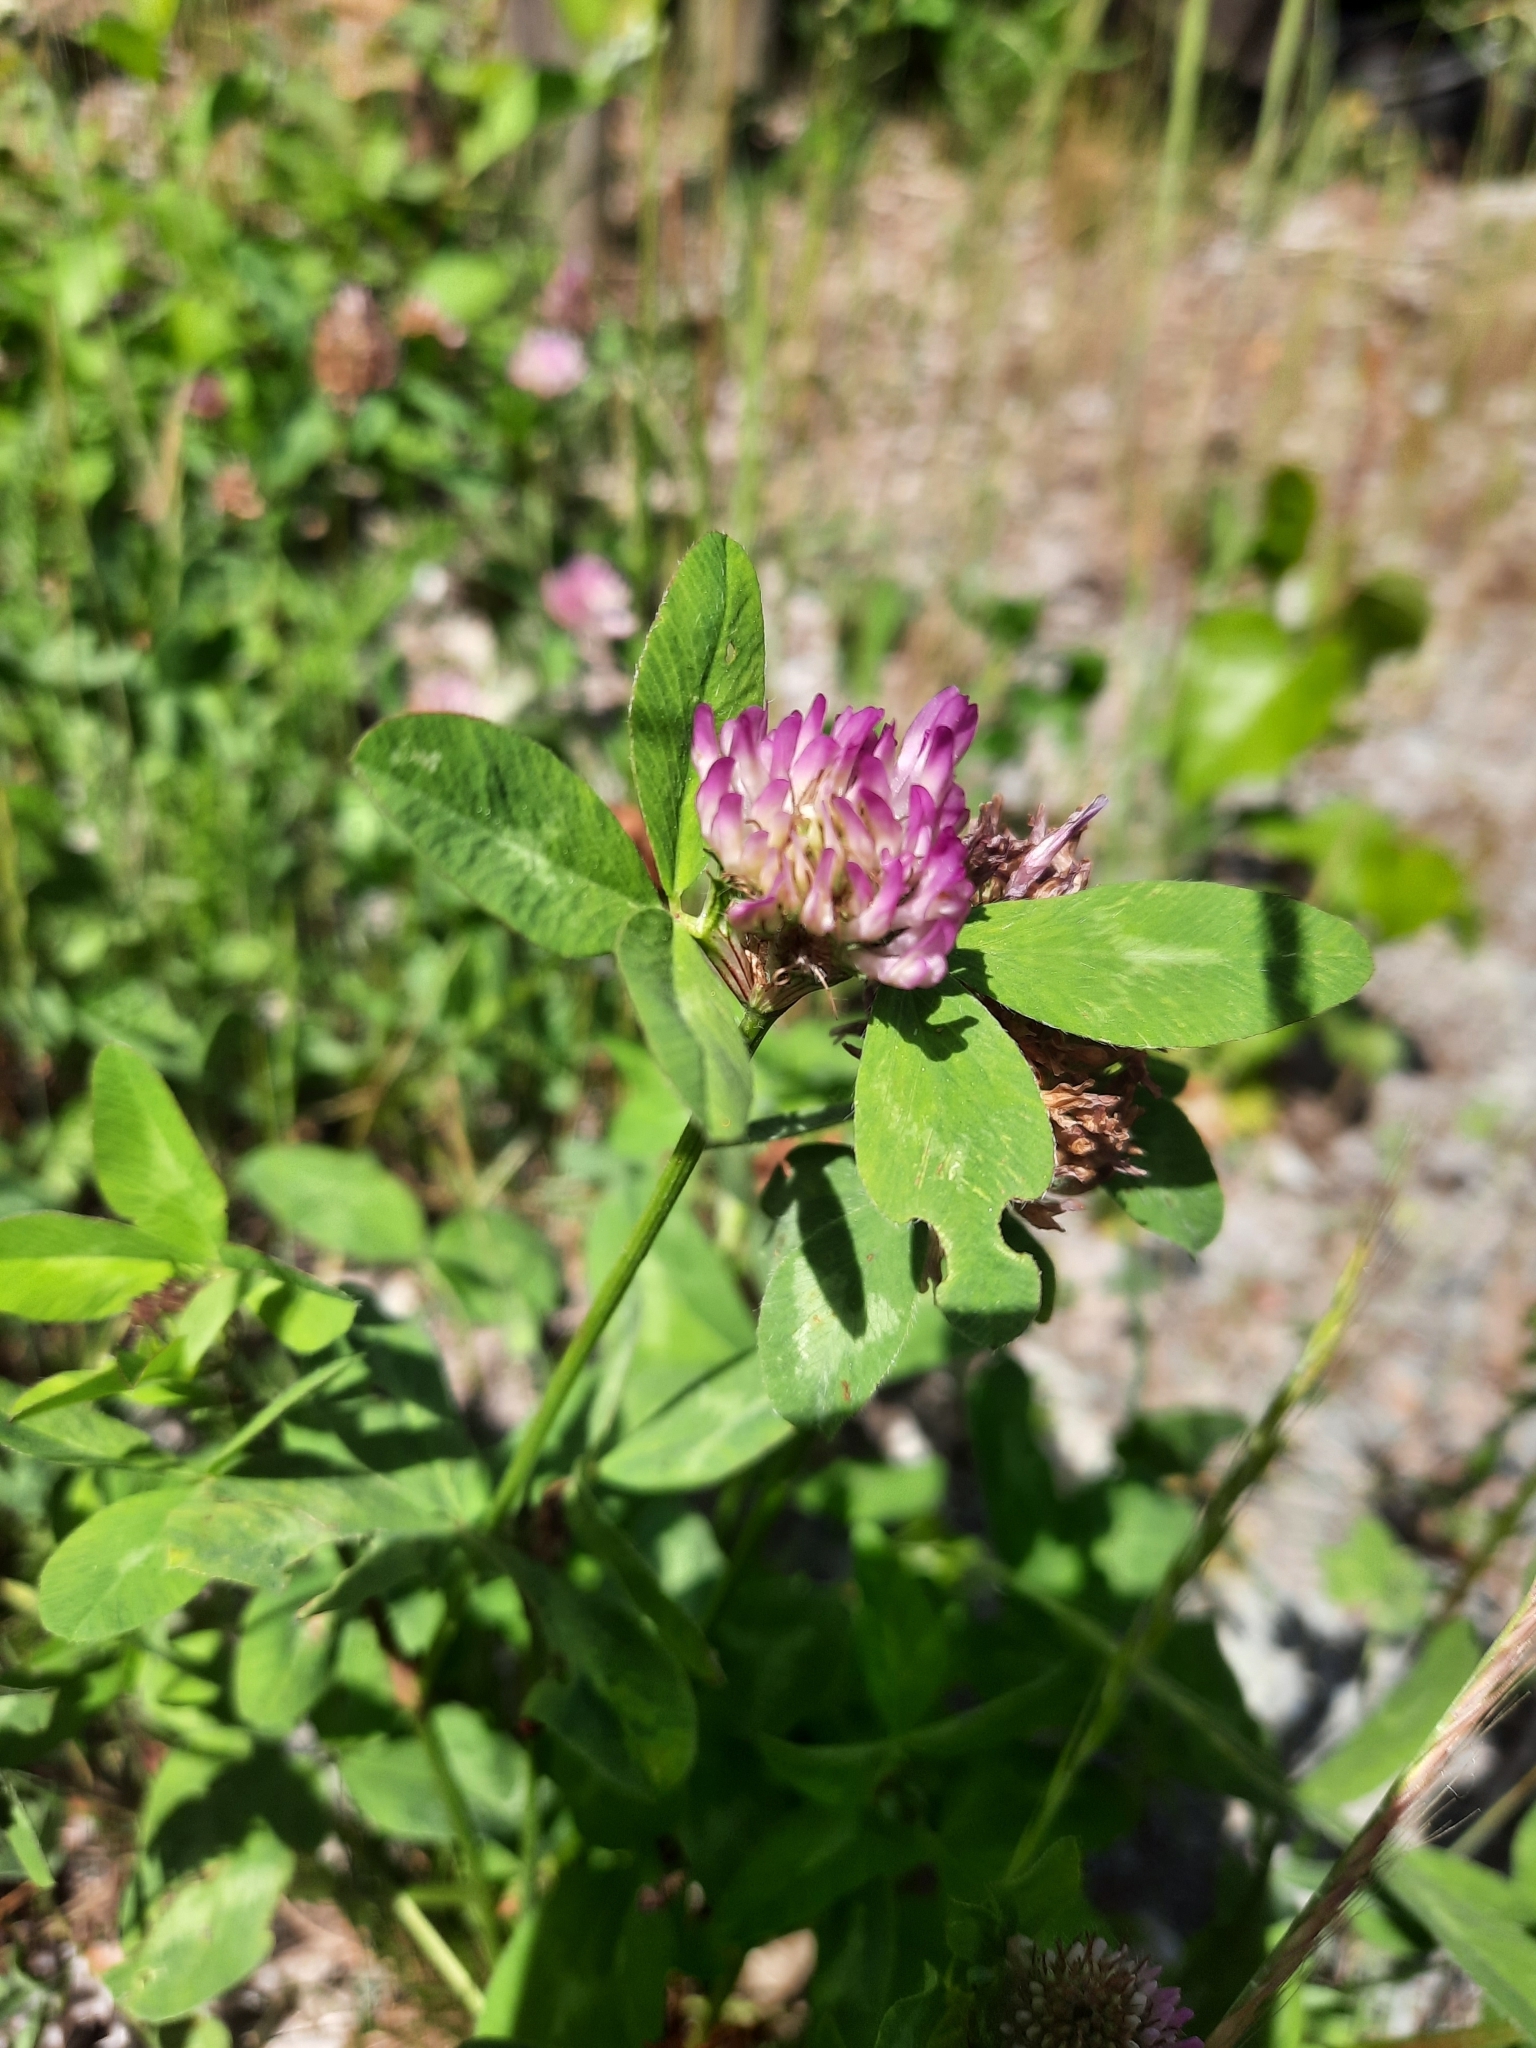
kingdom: Plantae
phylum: Tracheophyta
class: Magnoliopsida
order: Fabales
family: Fabaceae
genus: Trifolium
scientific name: Trifolium pratense
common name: Red clover
